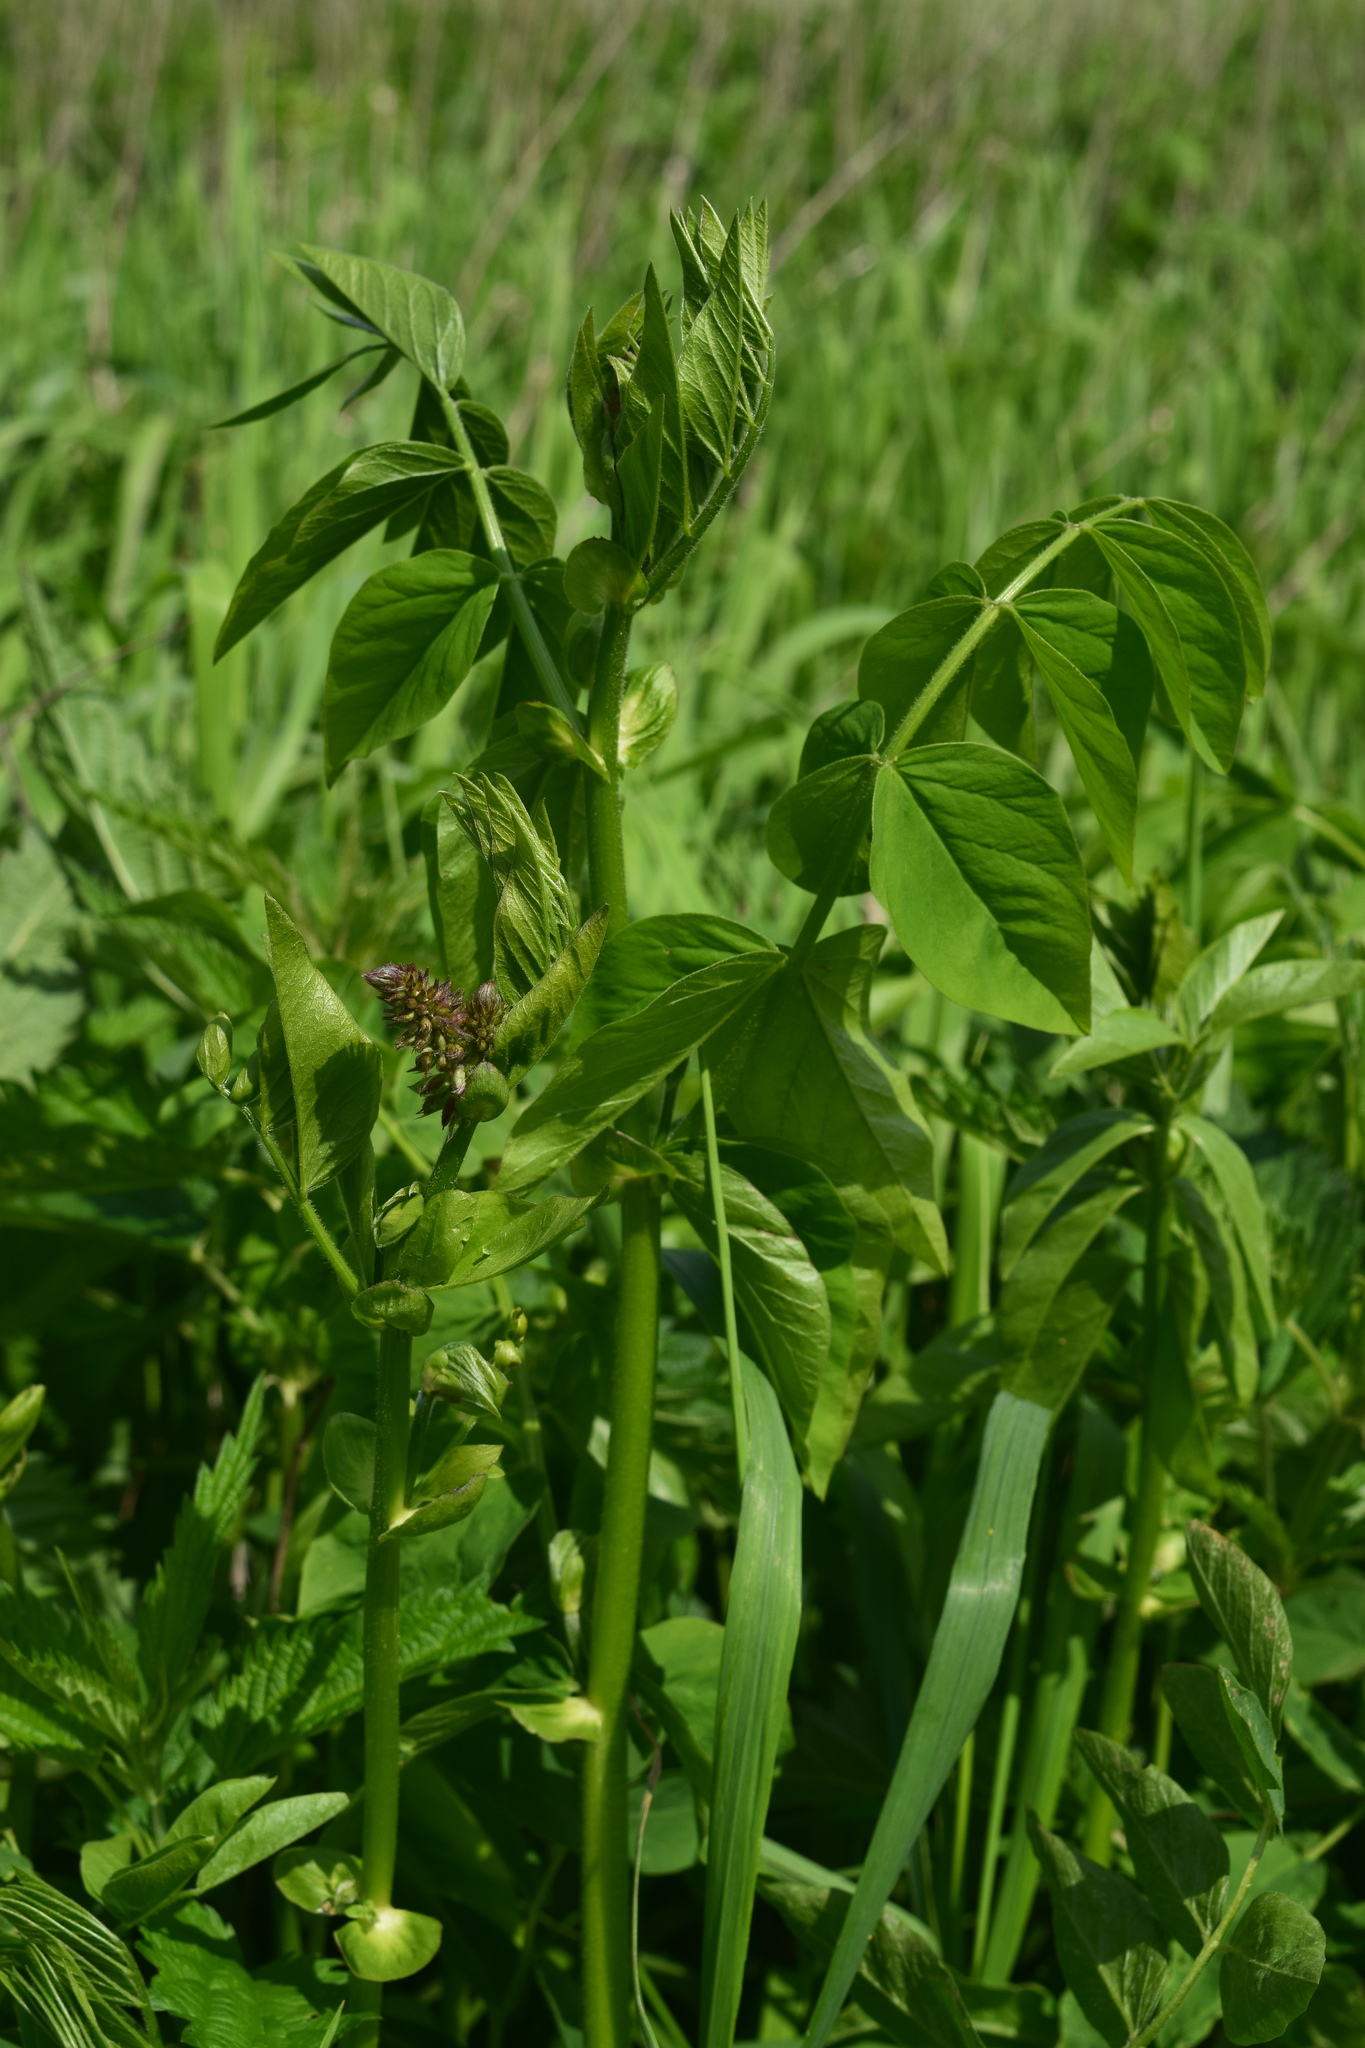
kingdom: Plantae
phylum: Tracheophyta
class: Magnoliopsida
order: Fabales
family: Fabaceae
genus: Galega
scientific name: Galega orientalis
